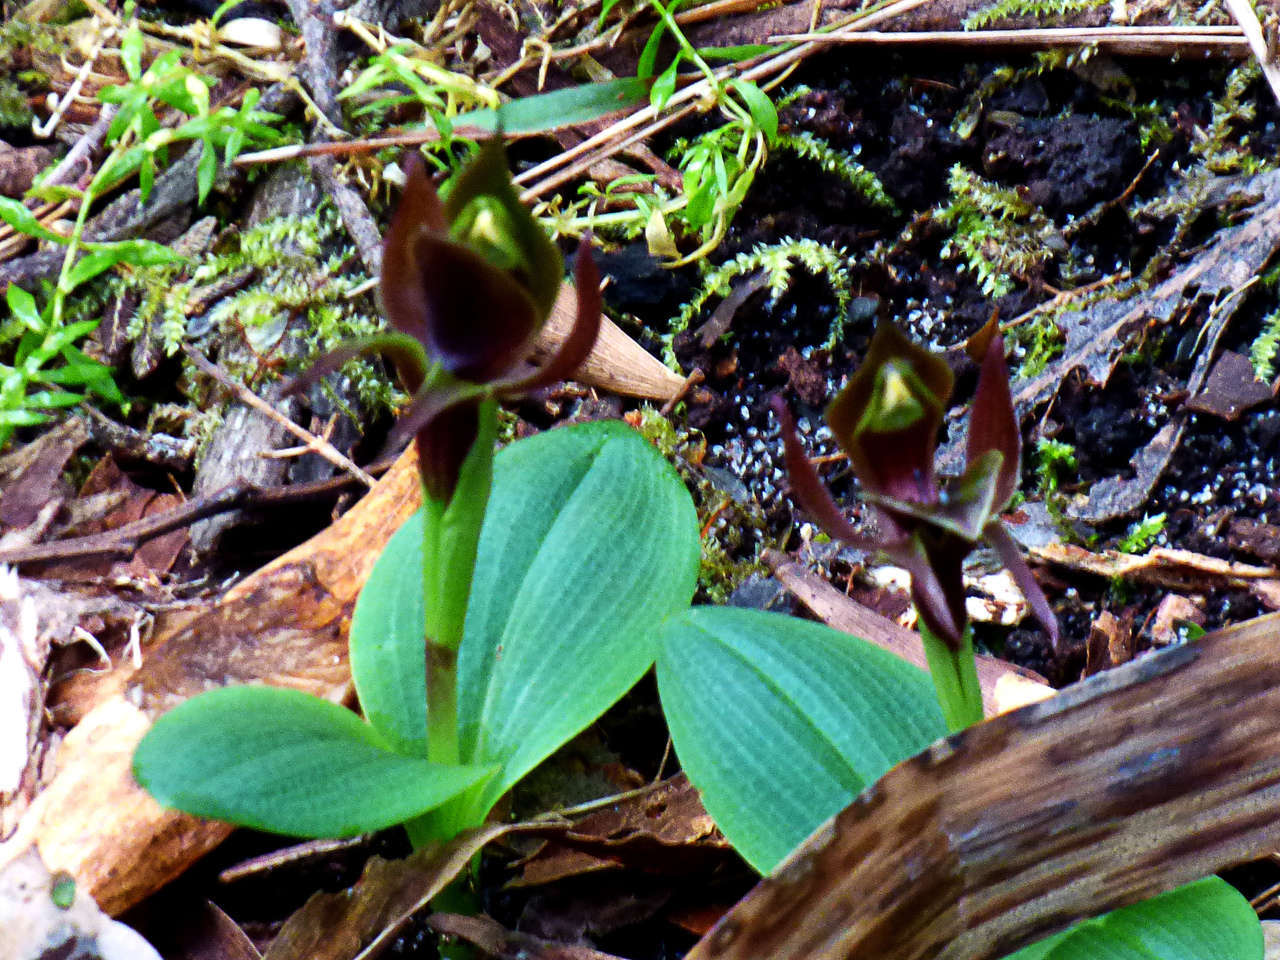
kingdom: Plantae
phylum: Tracheophyta
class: Liliopsida
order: Asparagales
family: Orchidaceae
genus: Chiloglottis
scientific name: Chiloglottis valida
